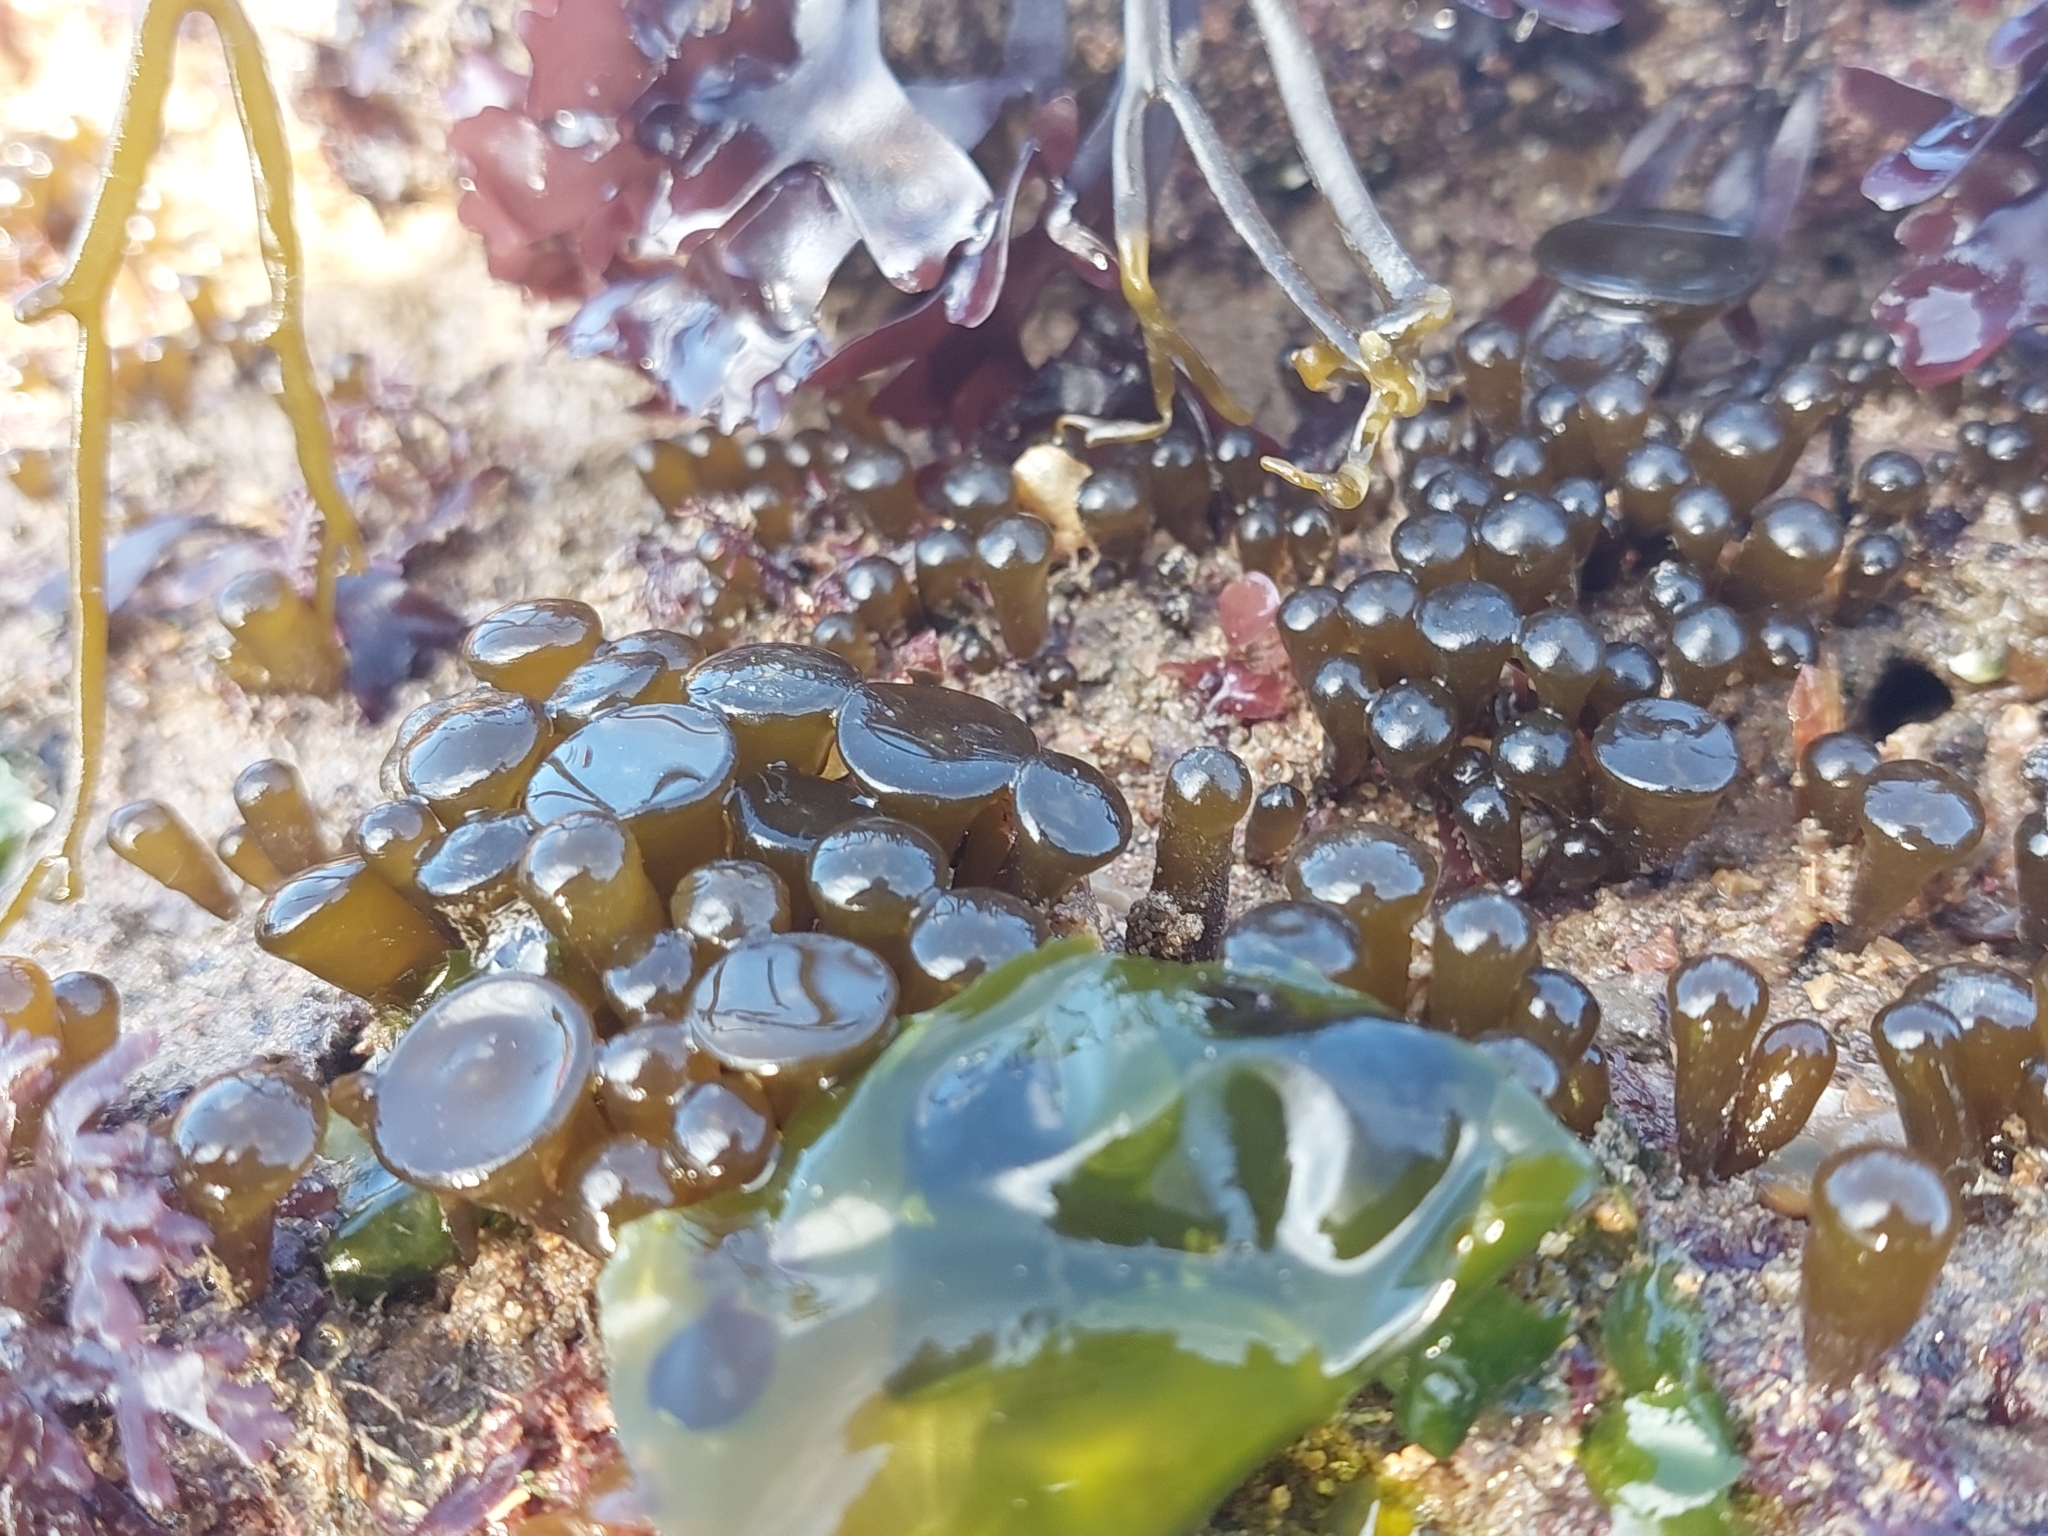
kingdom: Chromista
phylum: Ochrophyta
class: Phaeophyceae
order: Fucales
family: Himanthaliaceae
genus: Himanthalia
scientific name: Himanthalia elongata
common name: Sea-thong
